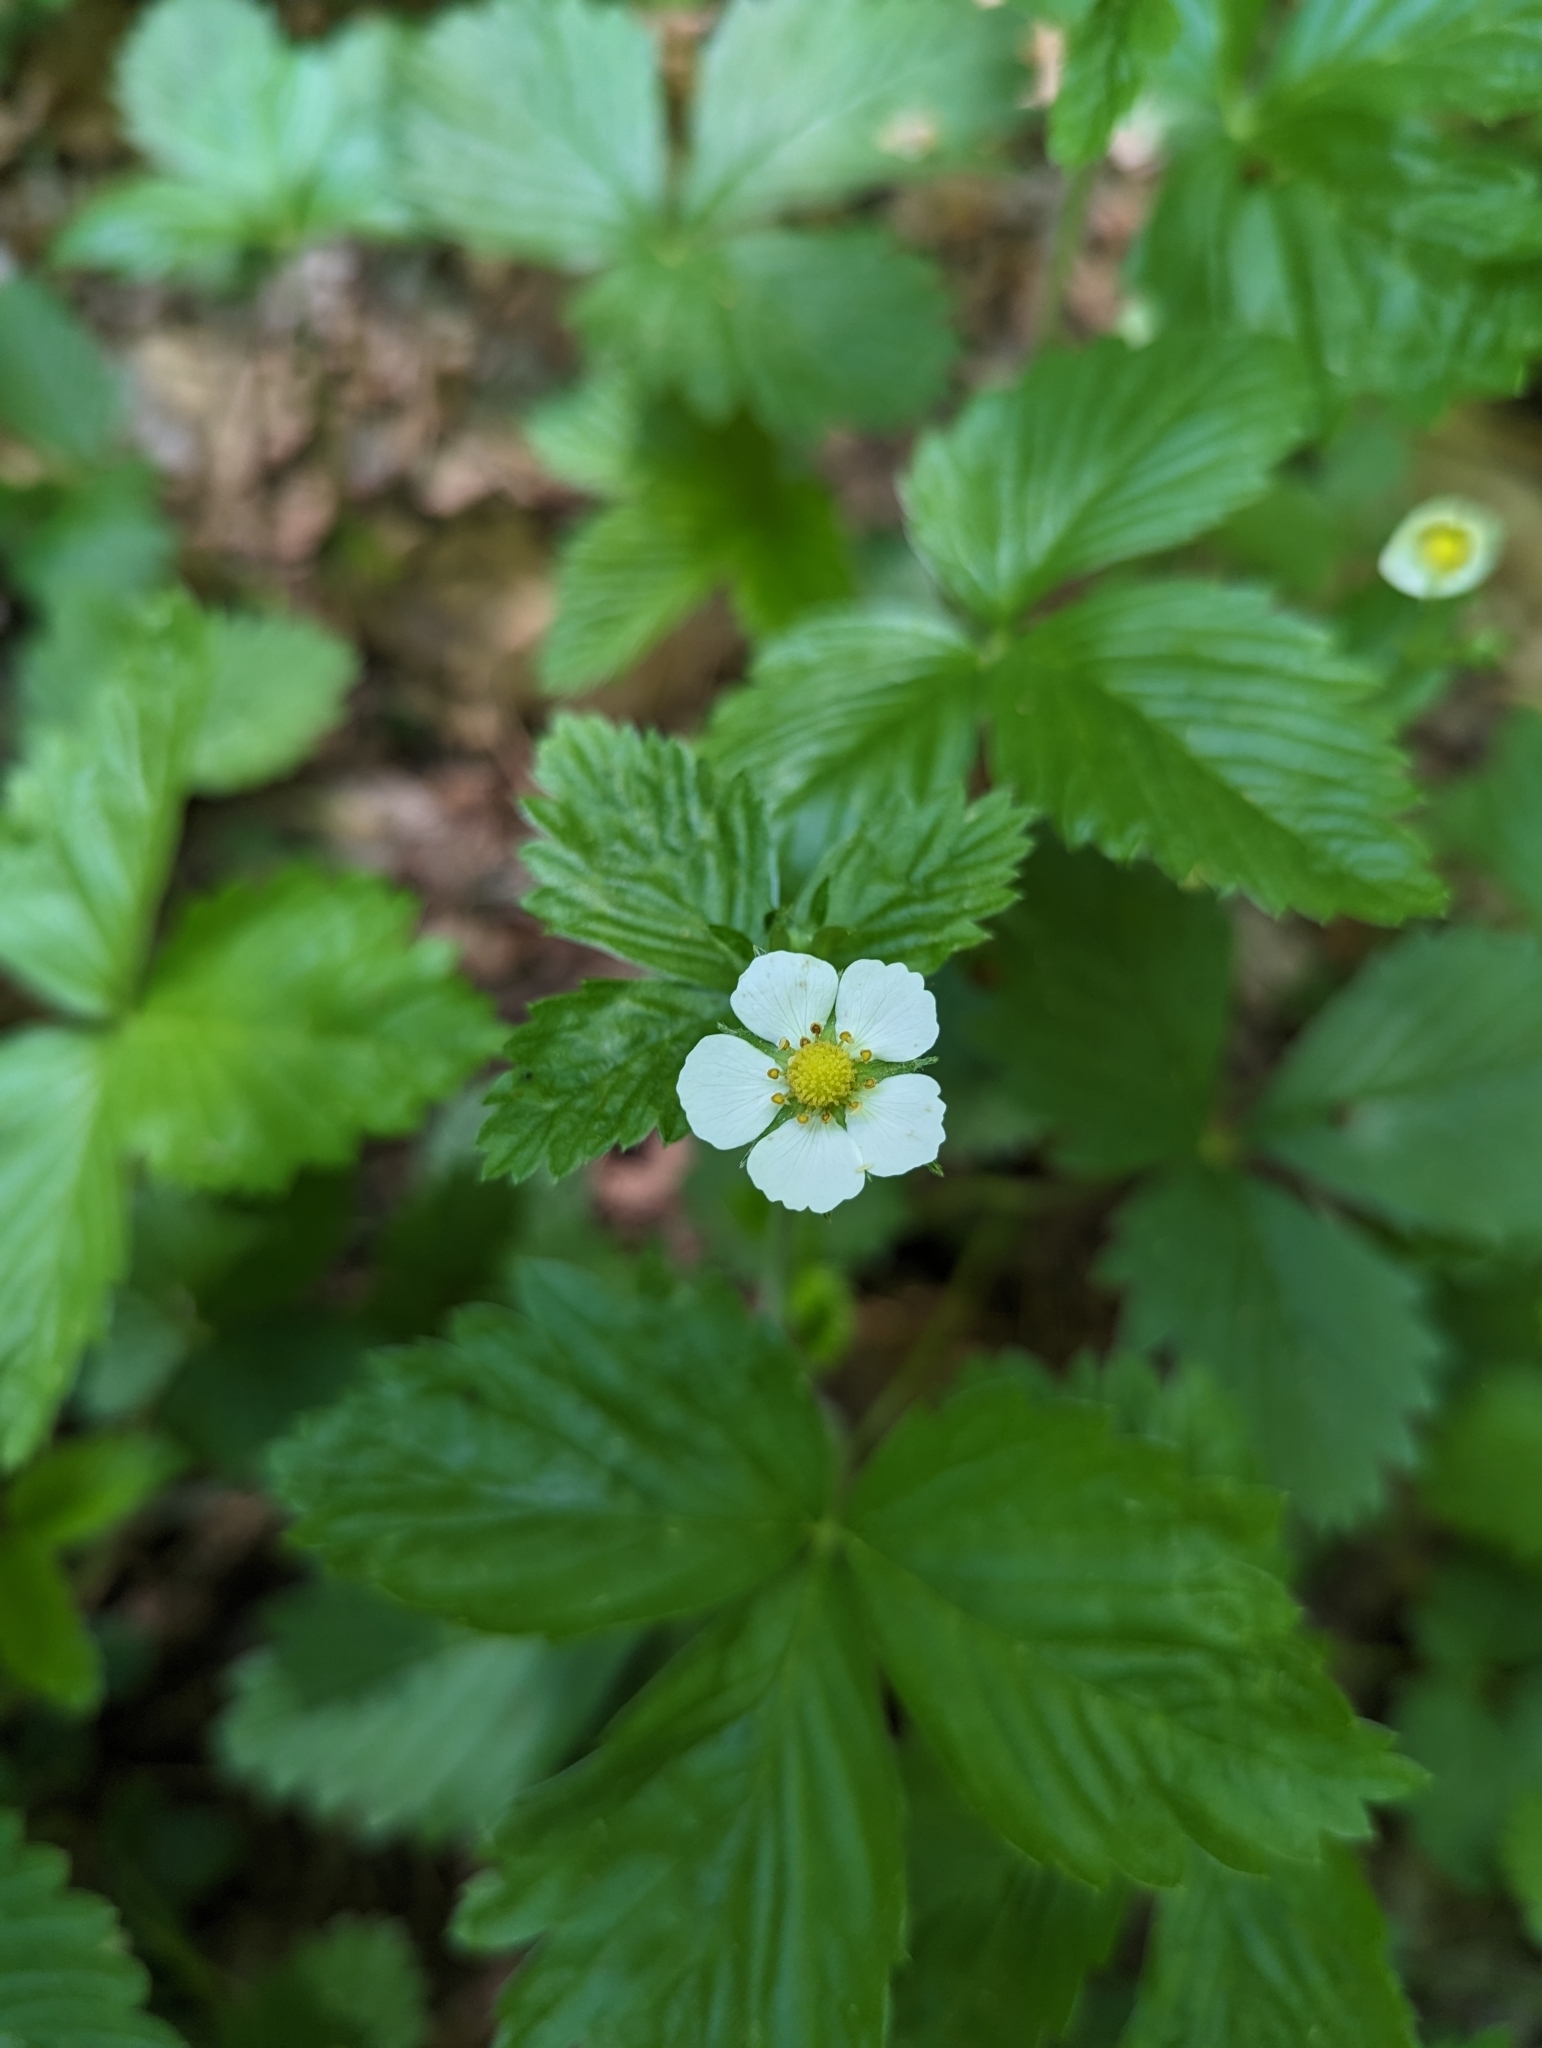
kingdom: Plantae
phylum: Tracheophyta
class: Magnoliopsida
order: Rosales
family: Rosaceae
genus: Fragaria
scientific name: Fragaria vesca
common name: Wild strawberry
